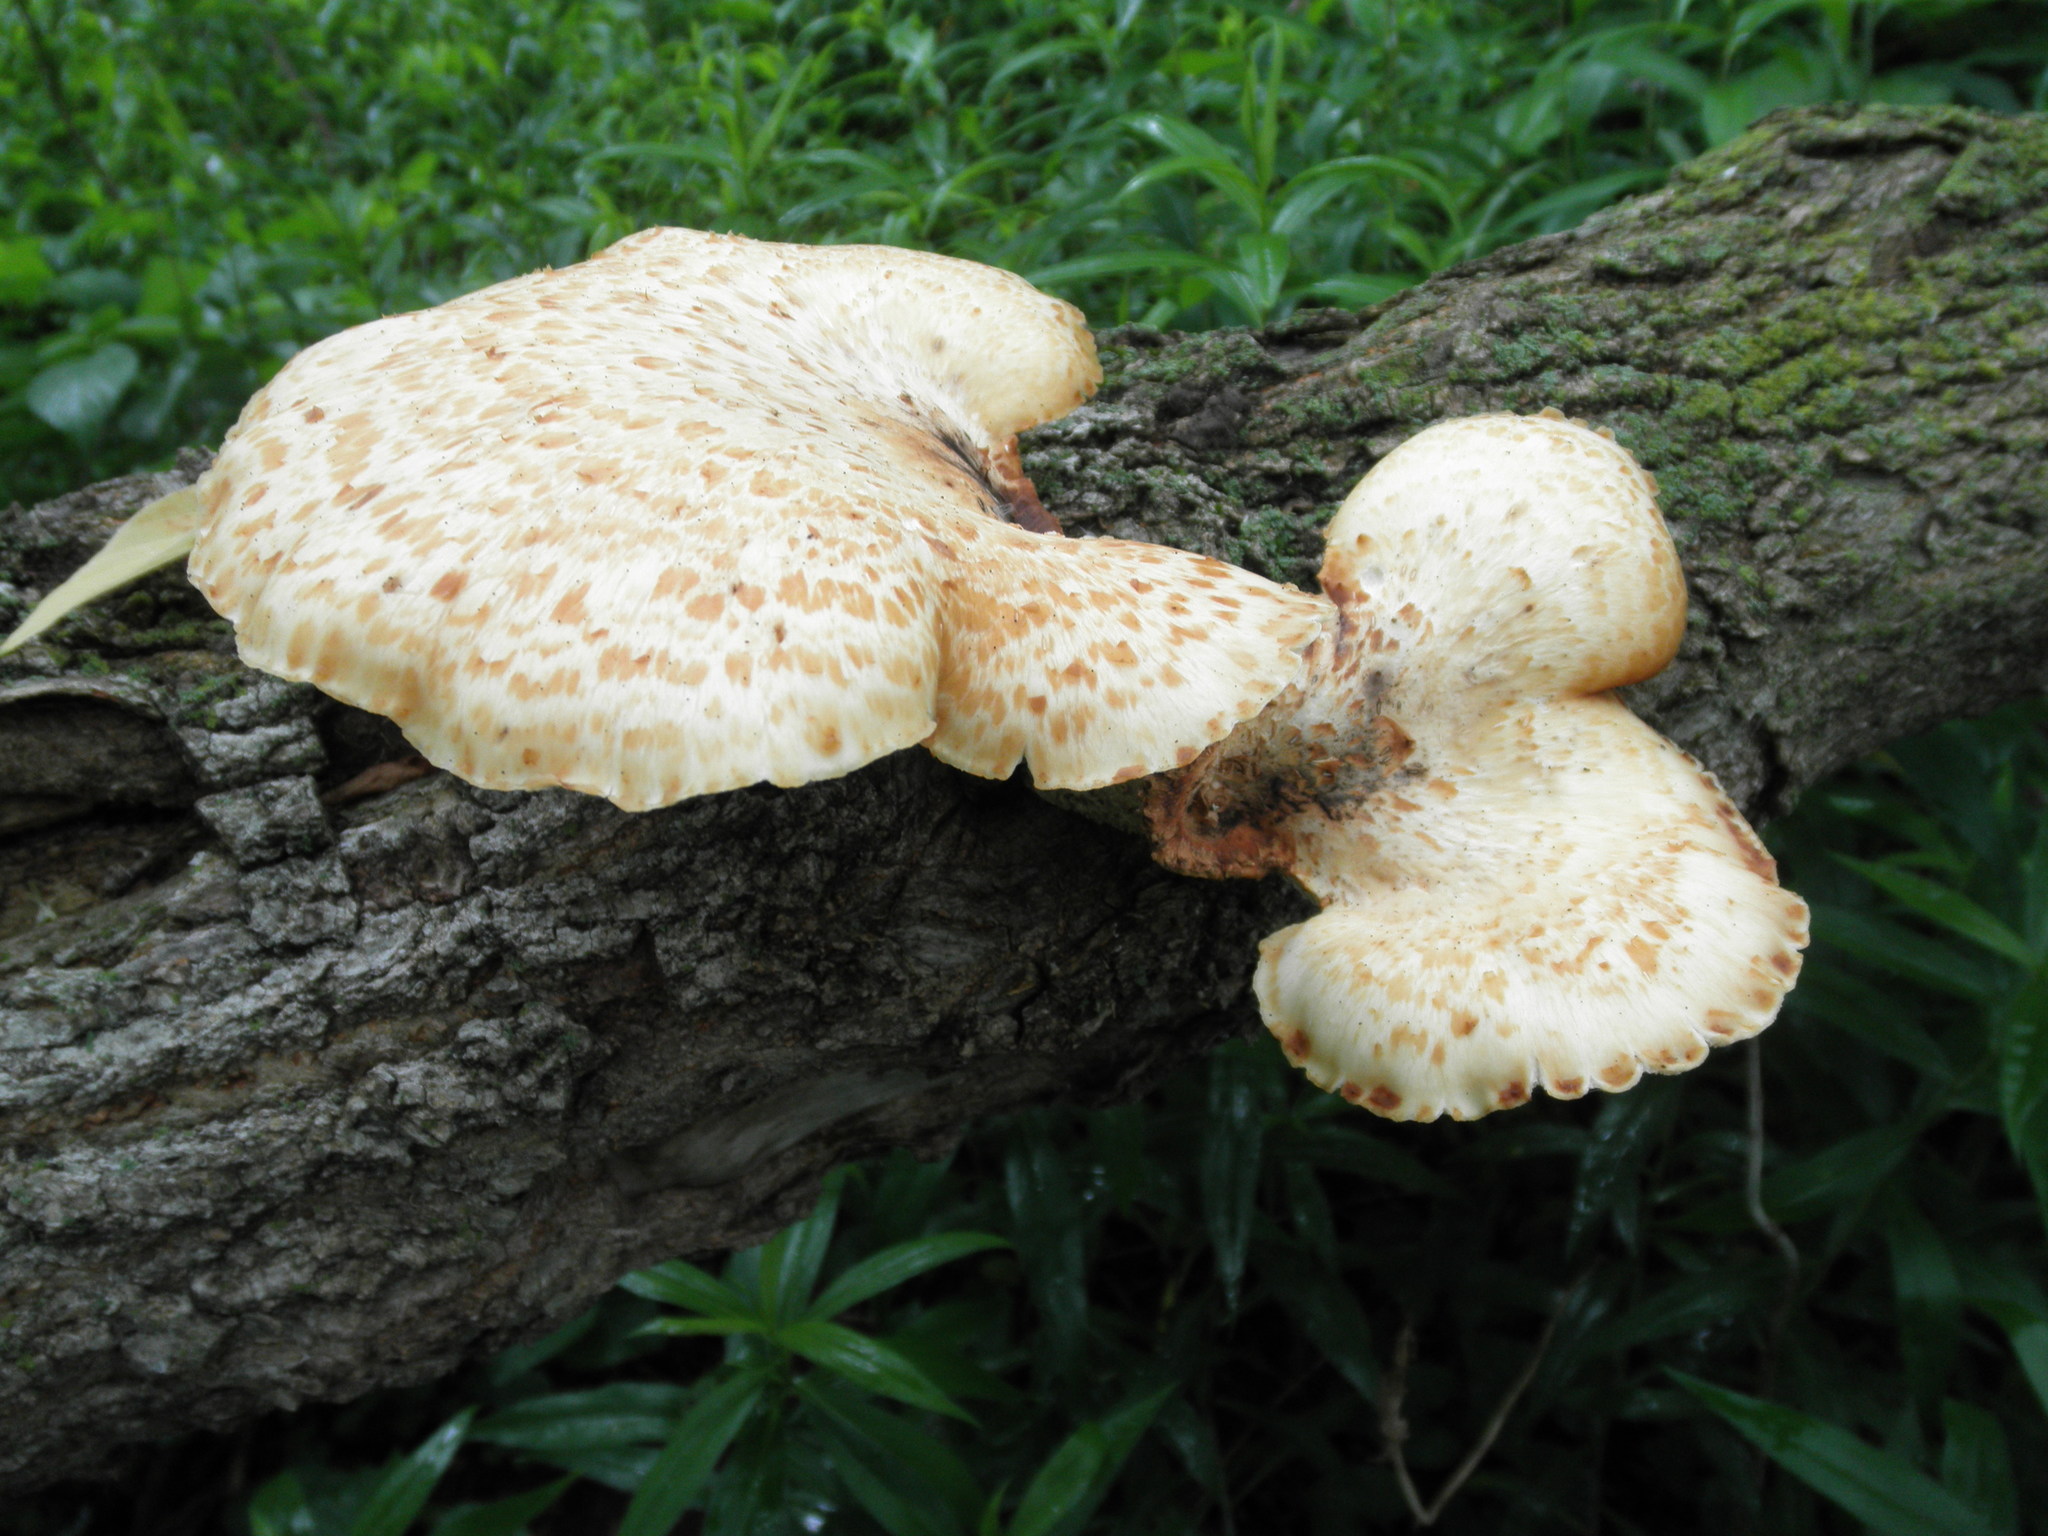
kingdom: Fungi
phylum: Basidiomycota
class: Agaricomycetes
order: Polyporales
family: Polyporaceae
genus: Cerioporus
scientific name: Cerioporus squamosus
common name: Dryad's saddle
